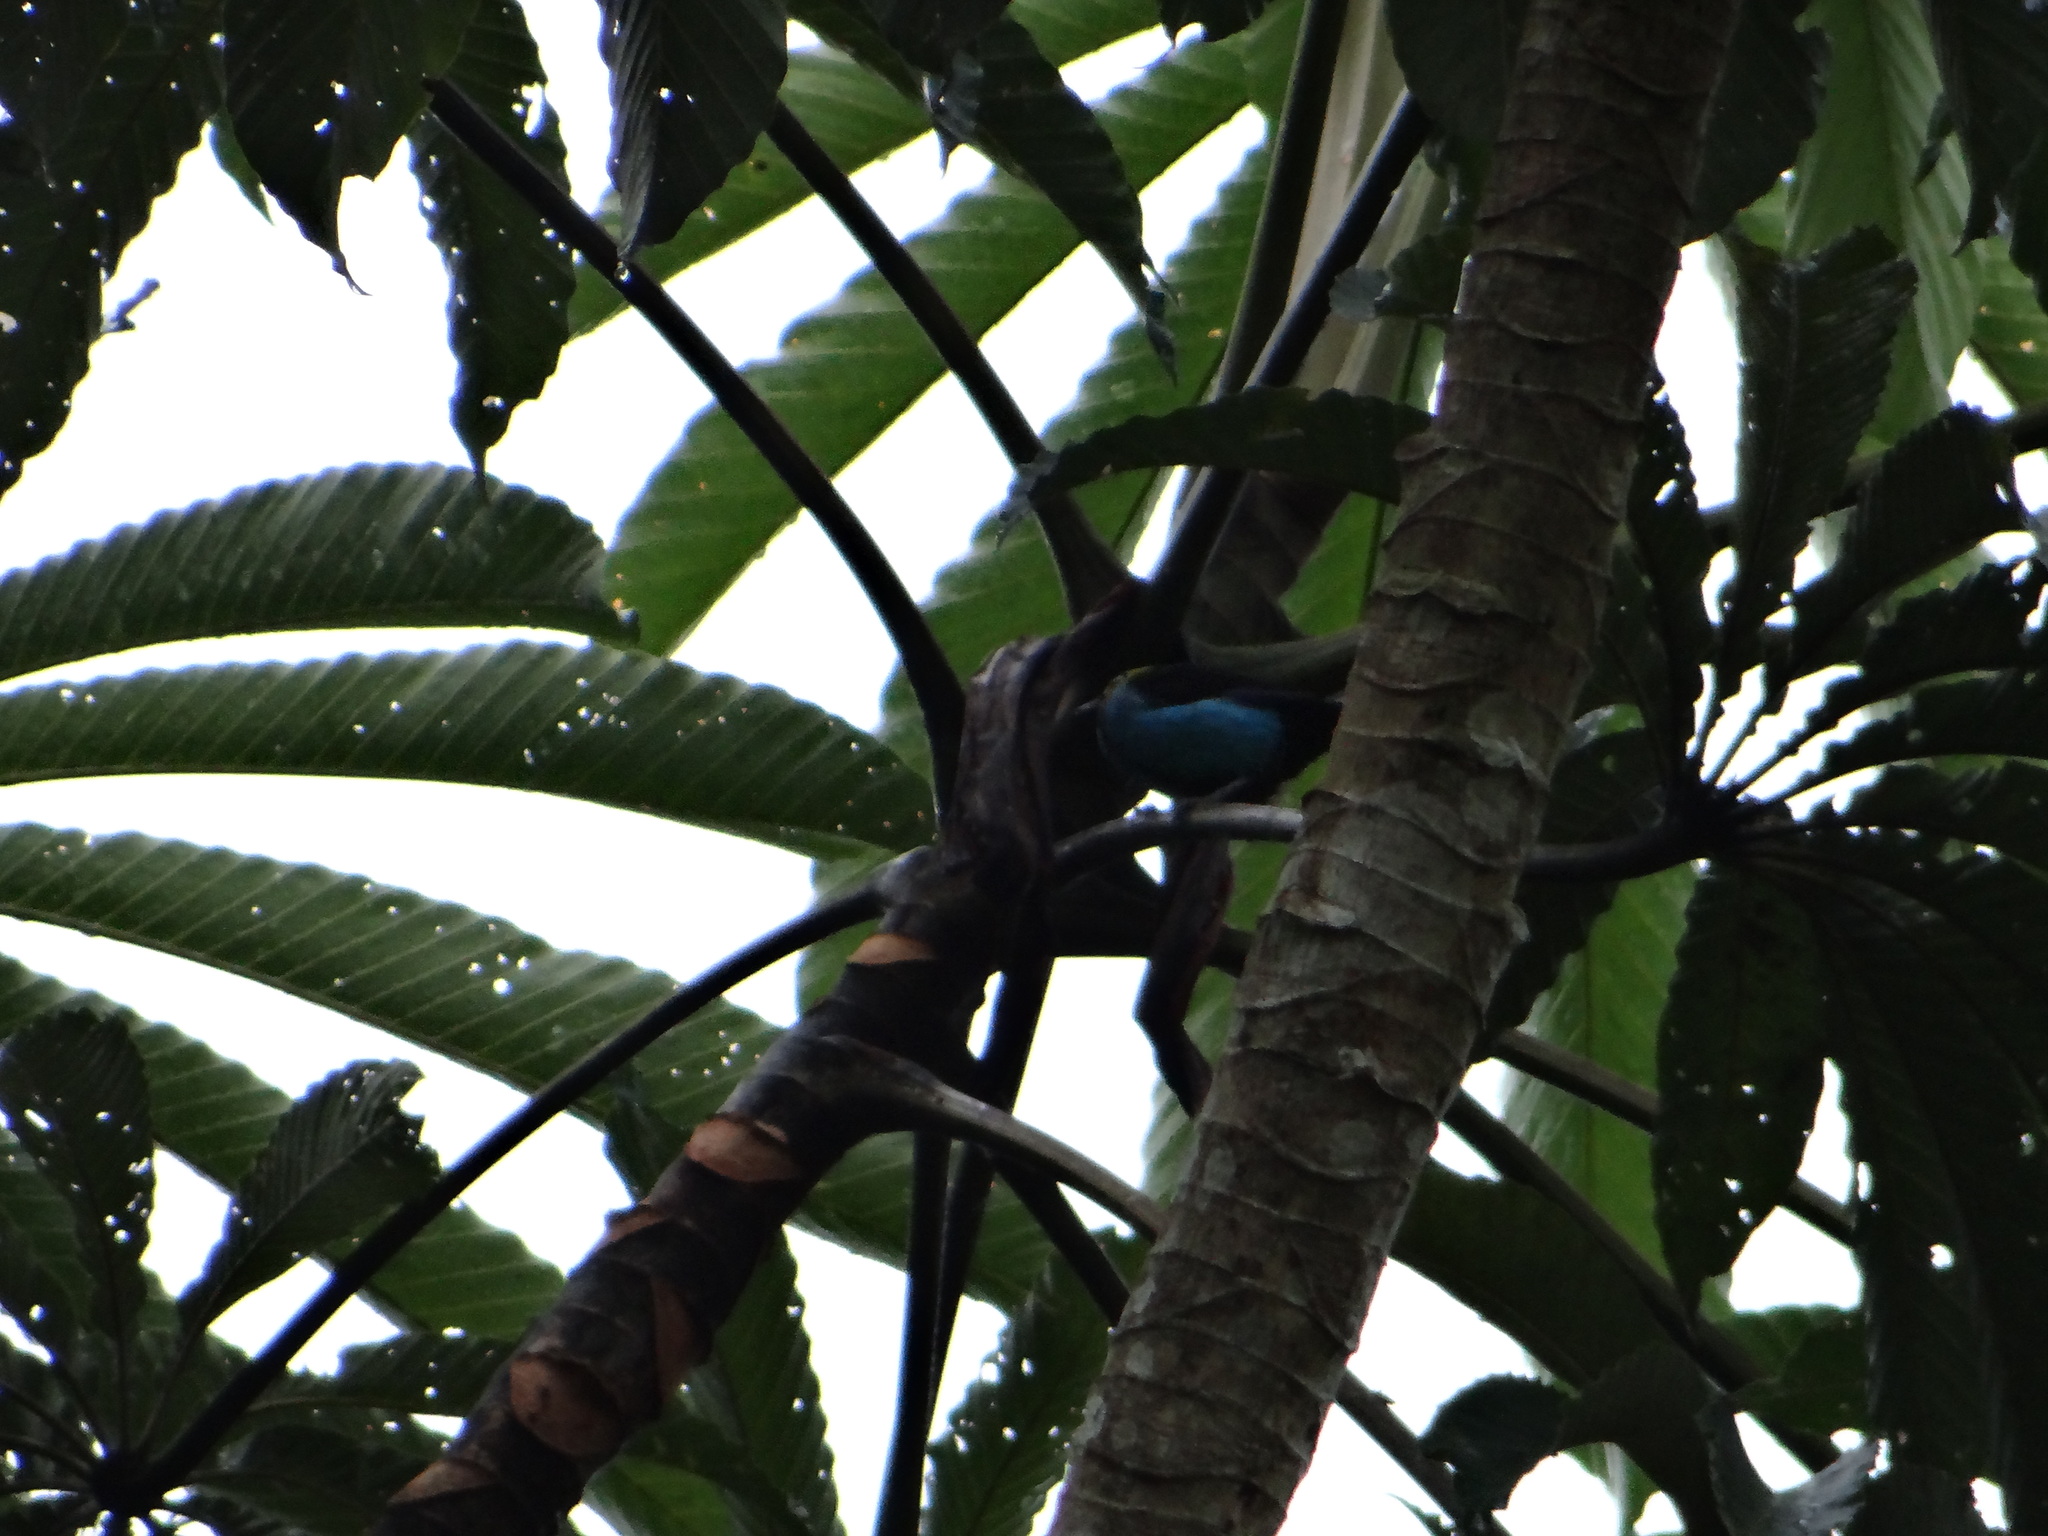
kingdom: Animalia
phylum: Chordata
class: Aves
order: Passeriformes
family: Thraupidae
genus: Tangara
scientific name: Tangara chilensis
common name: Paradise tanager
